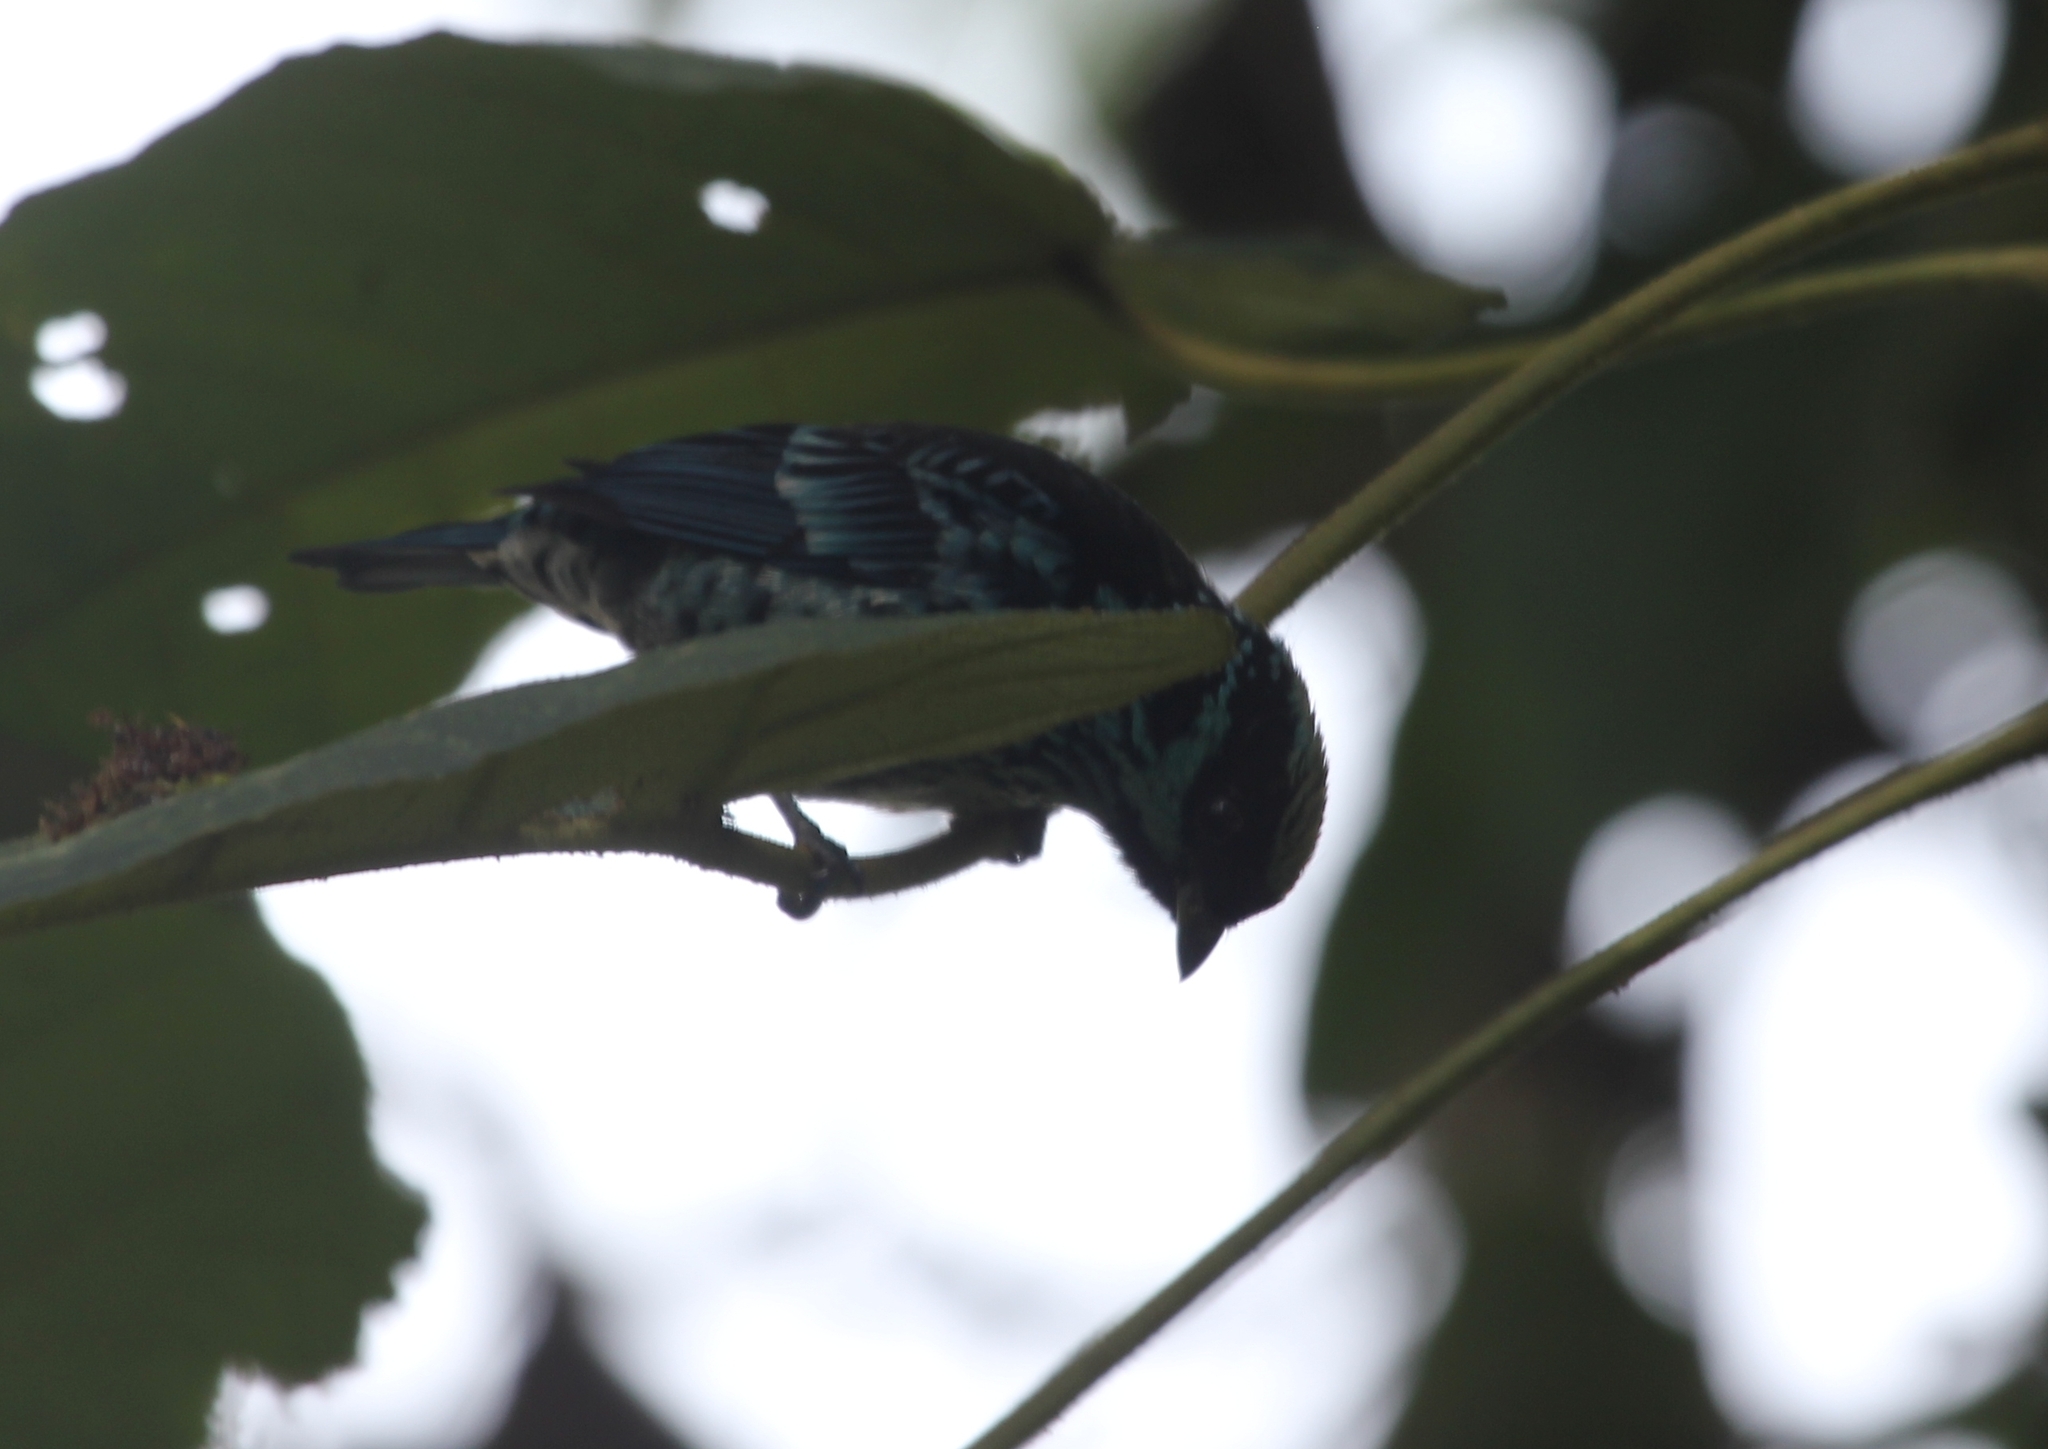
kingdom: Animalia
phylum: Chordata
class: Aves
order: Passeriformes
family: Thraupidae
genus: Tangara
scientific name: Tangara nigroviridis
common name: Beryl-spangled tanager
